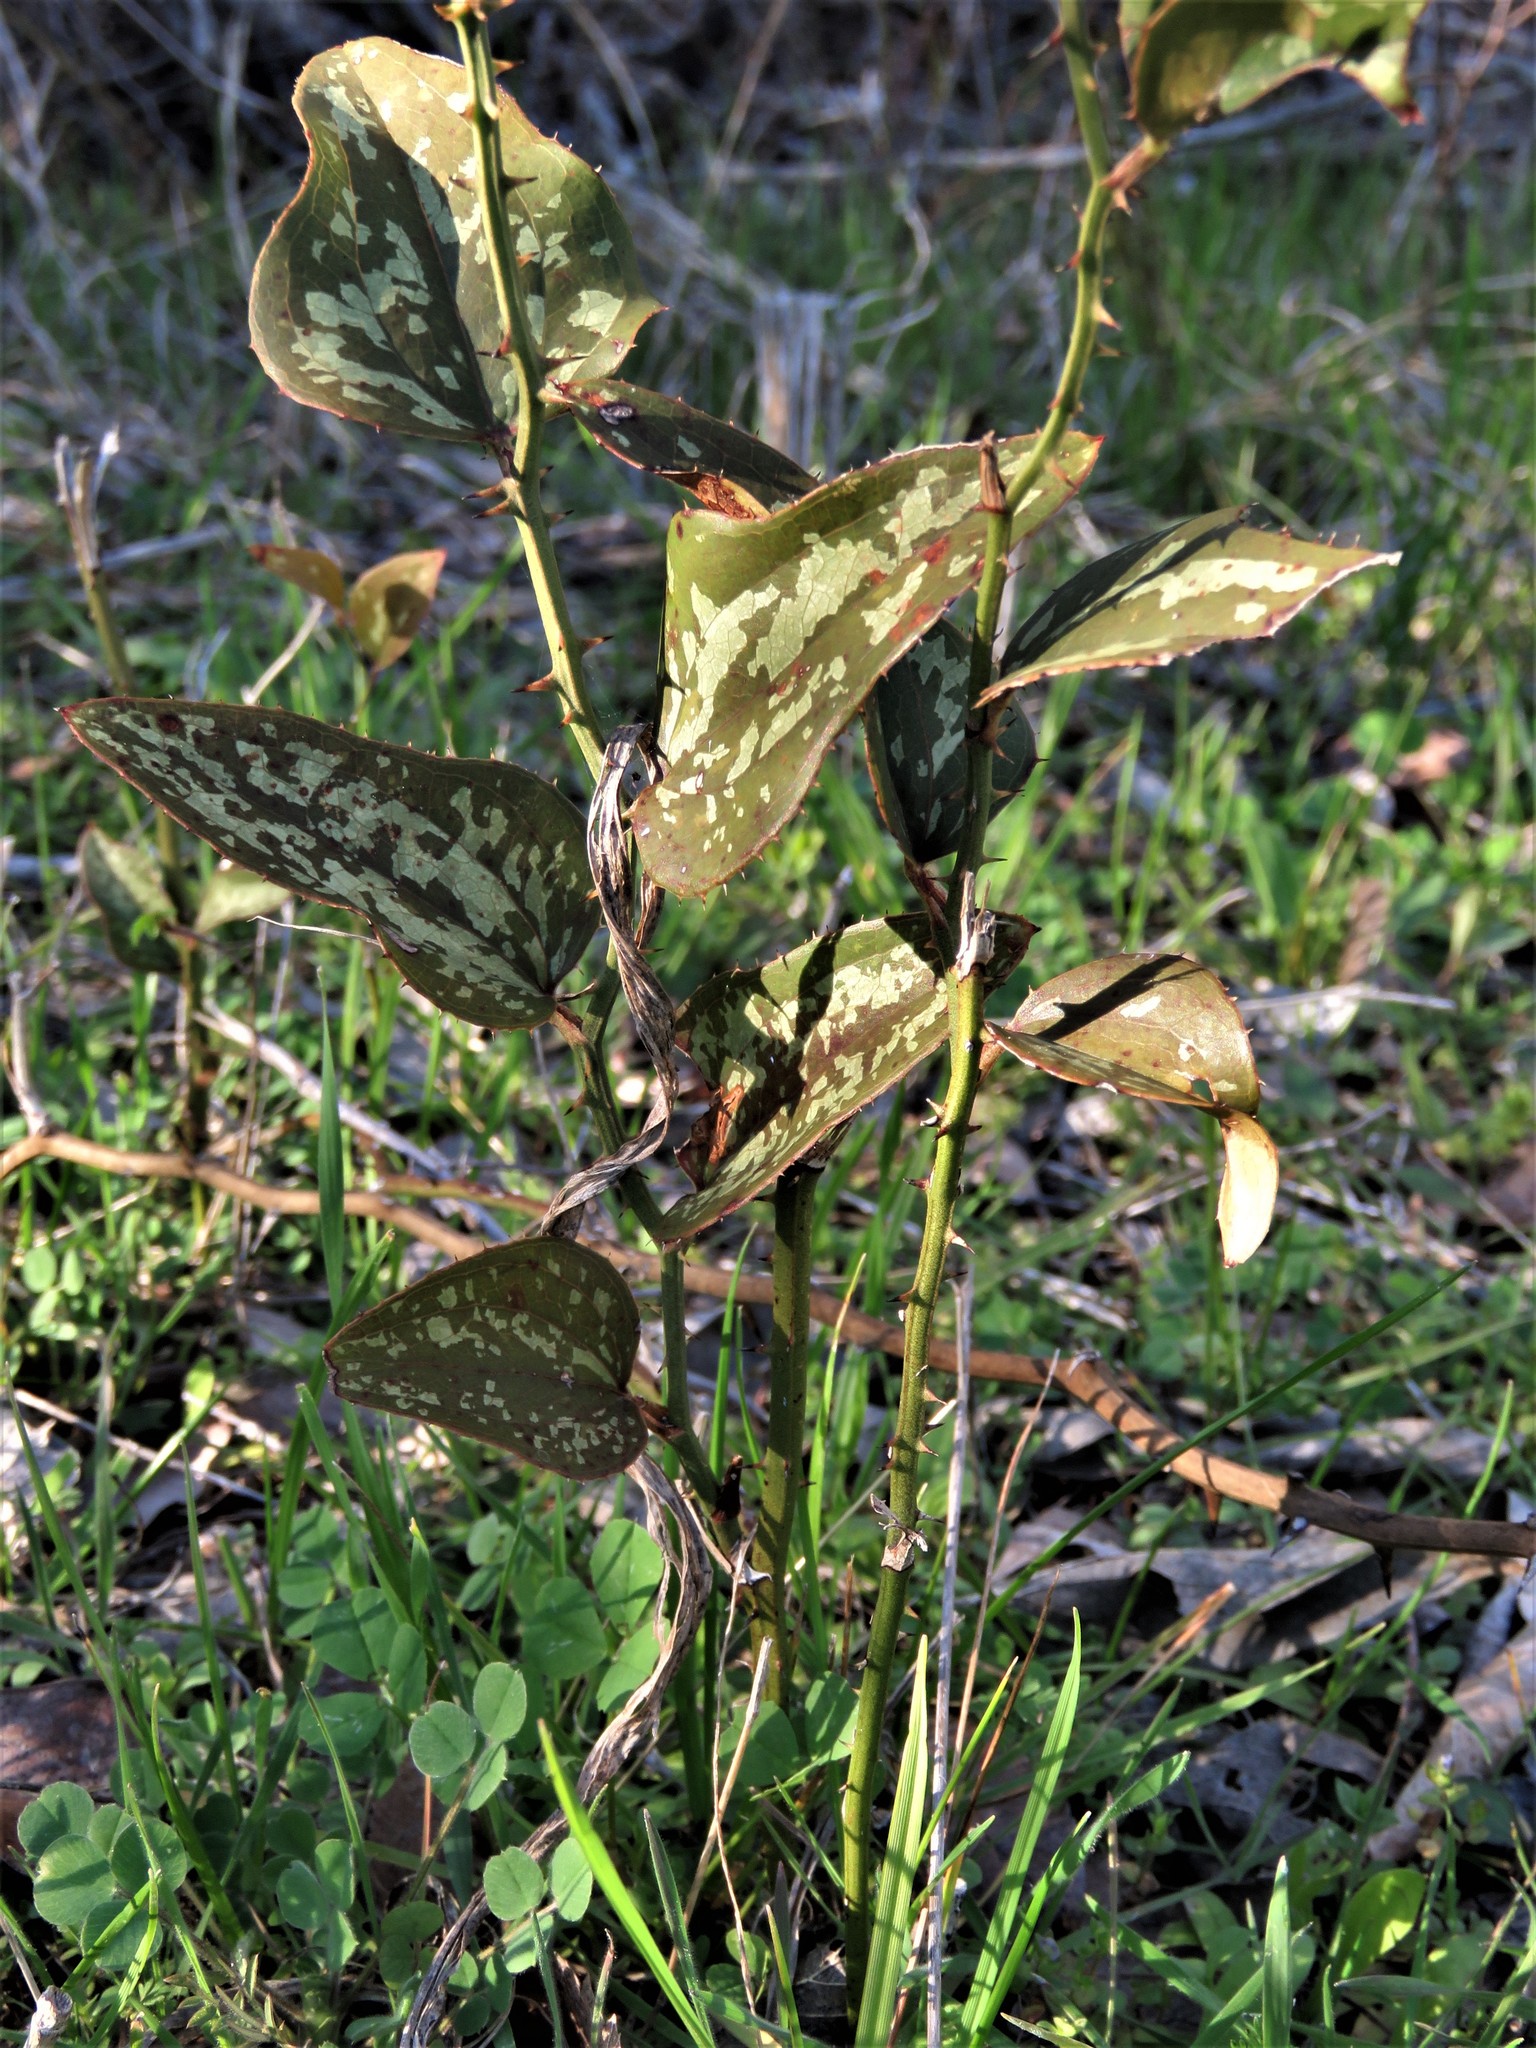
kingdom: Plantae
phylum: Tracheophyta
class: Liliopsida
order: Liliales
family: Smilacaceae
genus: Smilax
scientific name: Smilax bona-nox
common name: Catbrier
